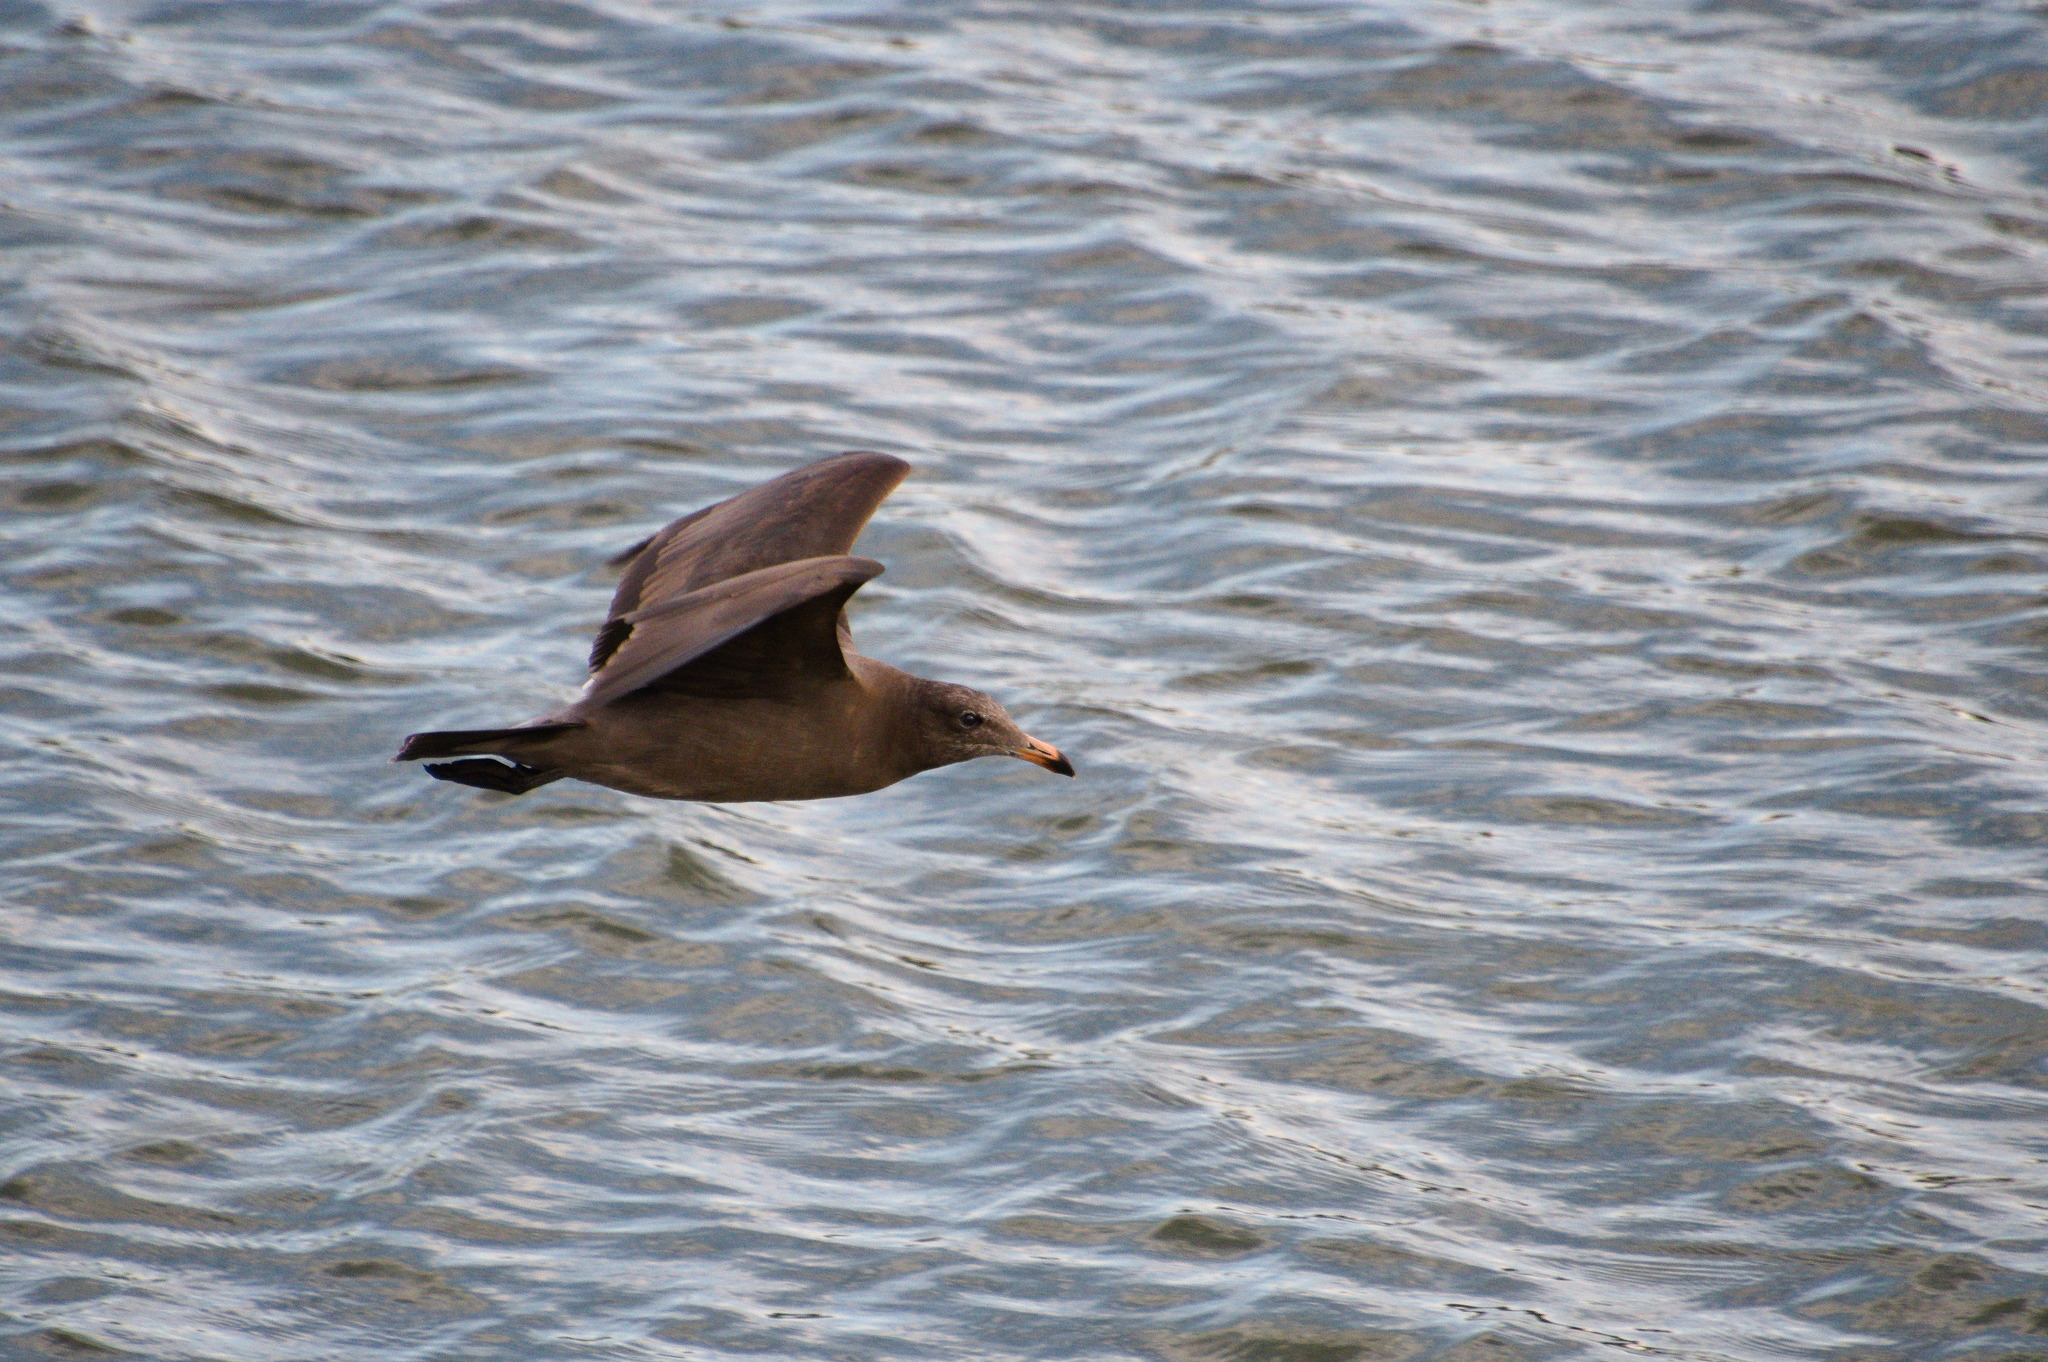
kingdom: Animalia
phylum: Chordata
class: Aves
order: Charadriiformes
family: Laridae
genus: Larus
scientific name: Larus heermanni
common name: Heermann's gull
